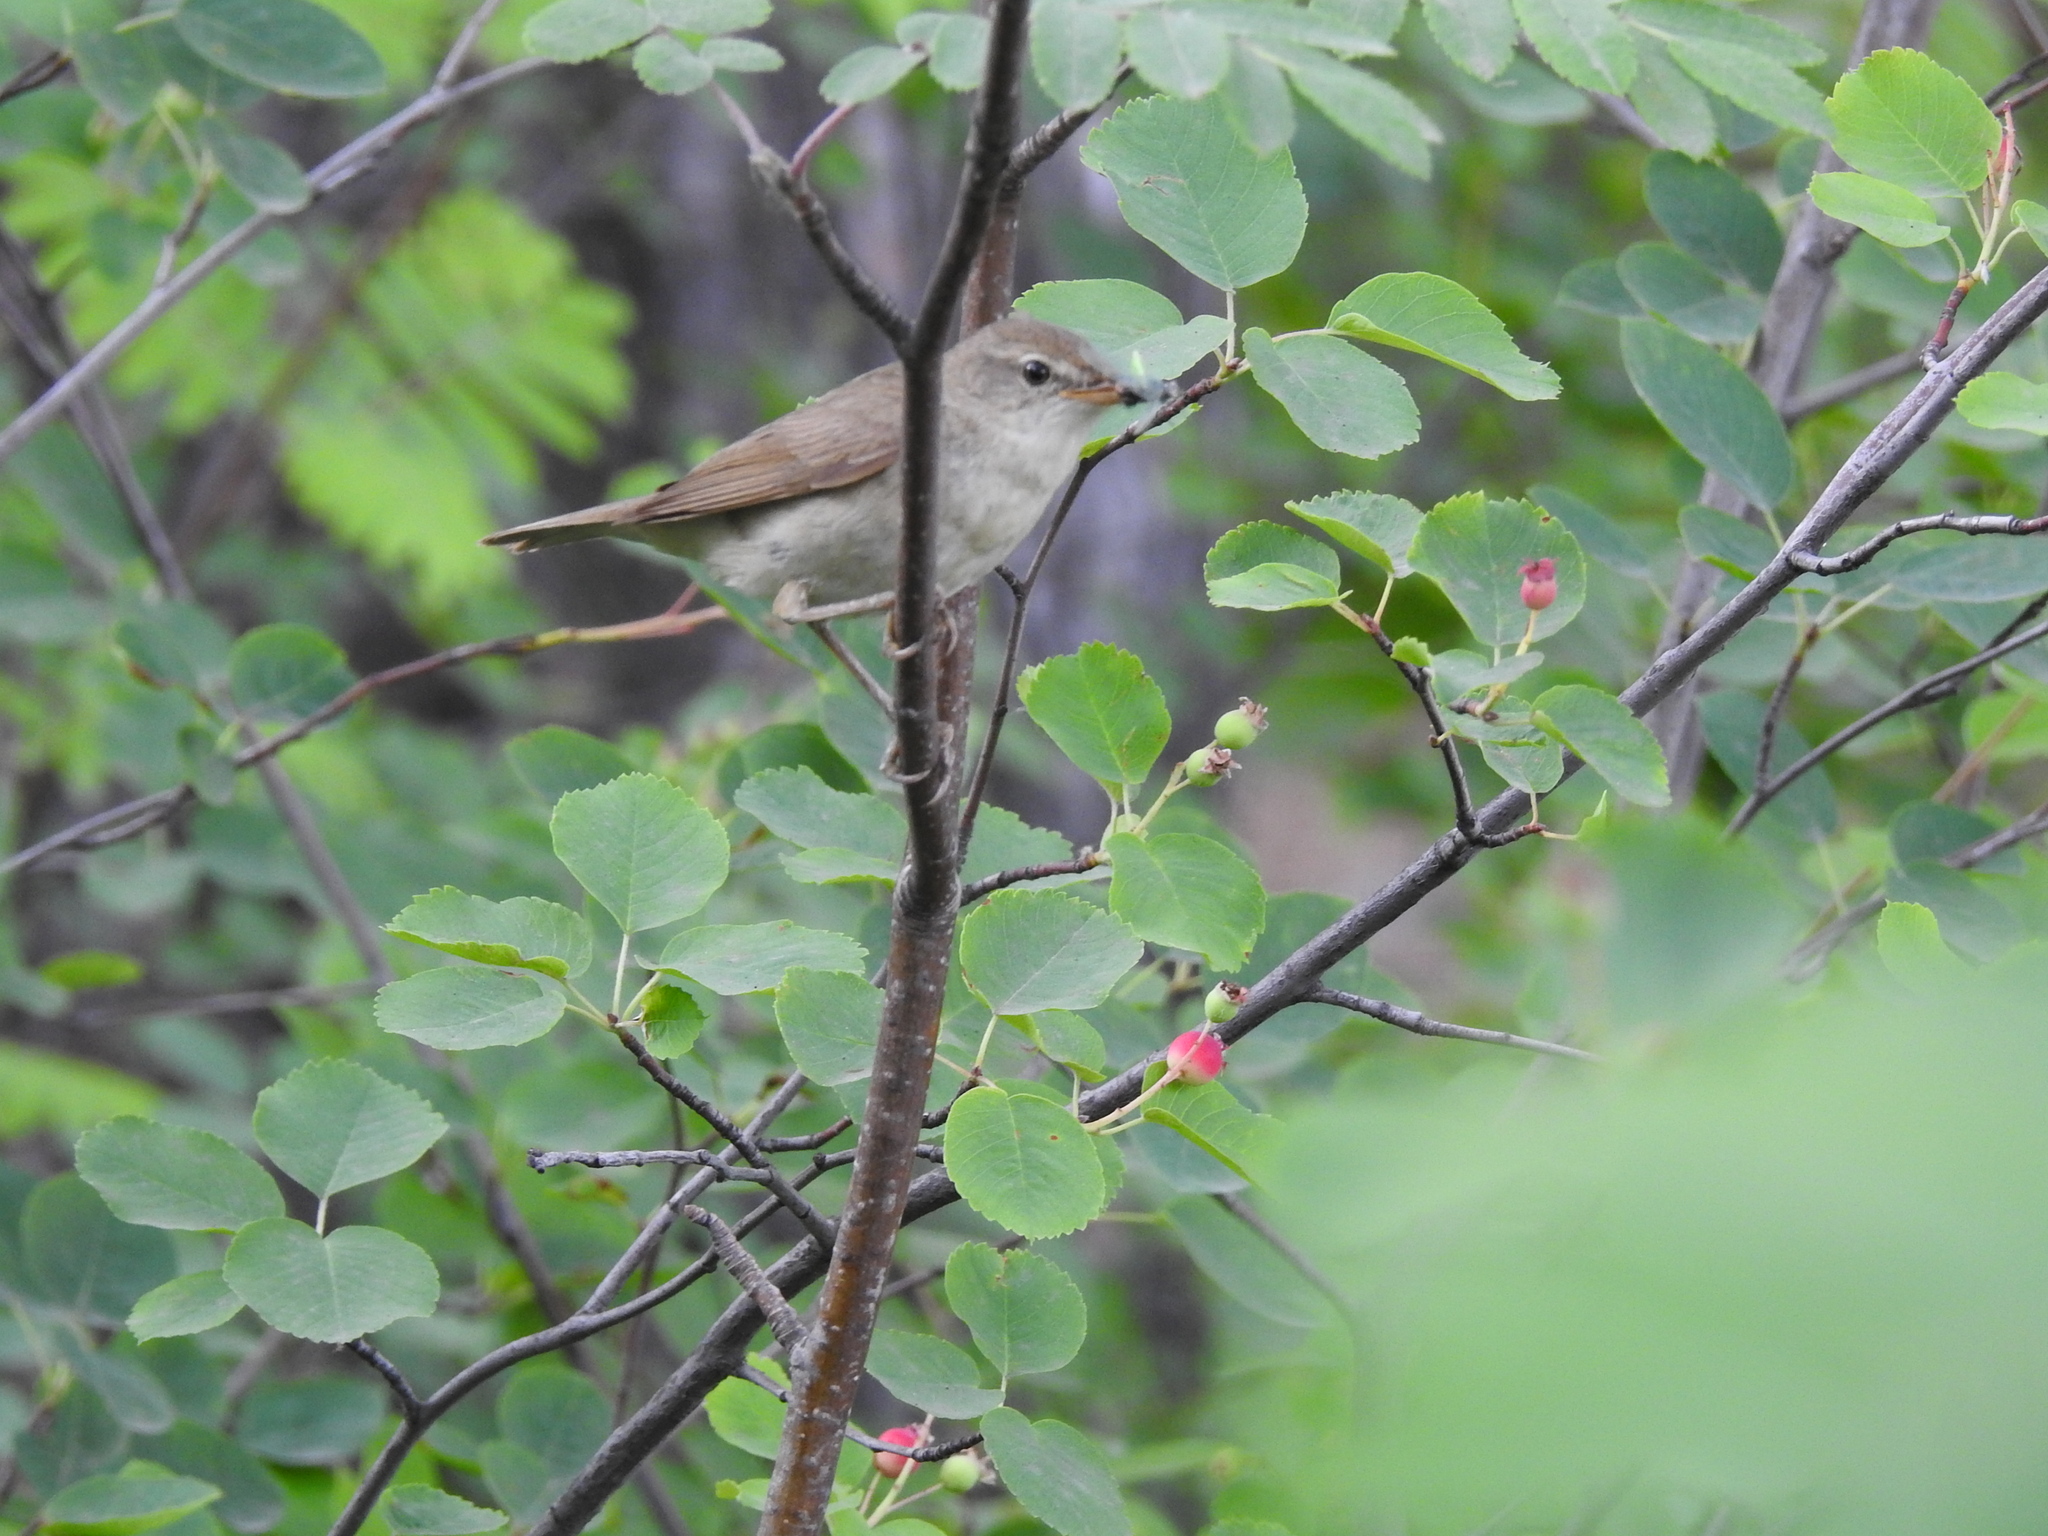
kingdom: Animalia
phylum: Chordata
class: Aves
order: Passeriformes
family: Acrocephalidae
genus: Acrocephalus
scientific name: Acrocephalus dumetorum
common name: Blyth's reed warbler
